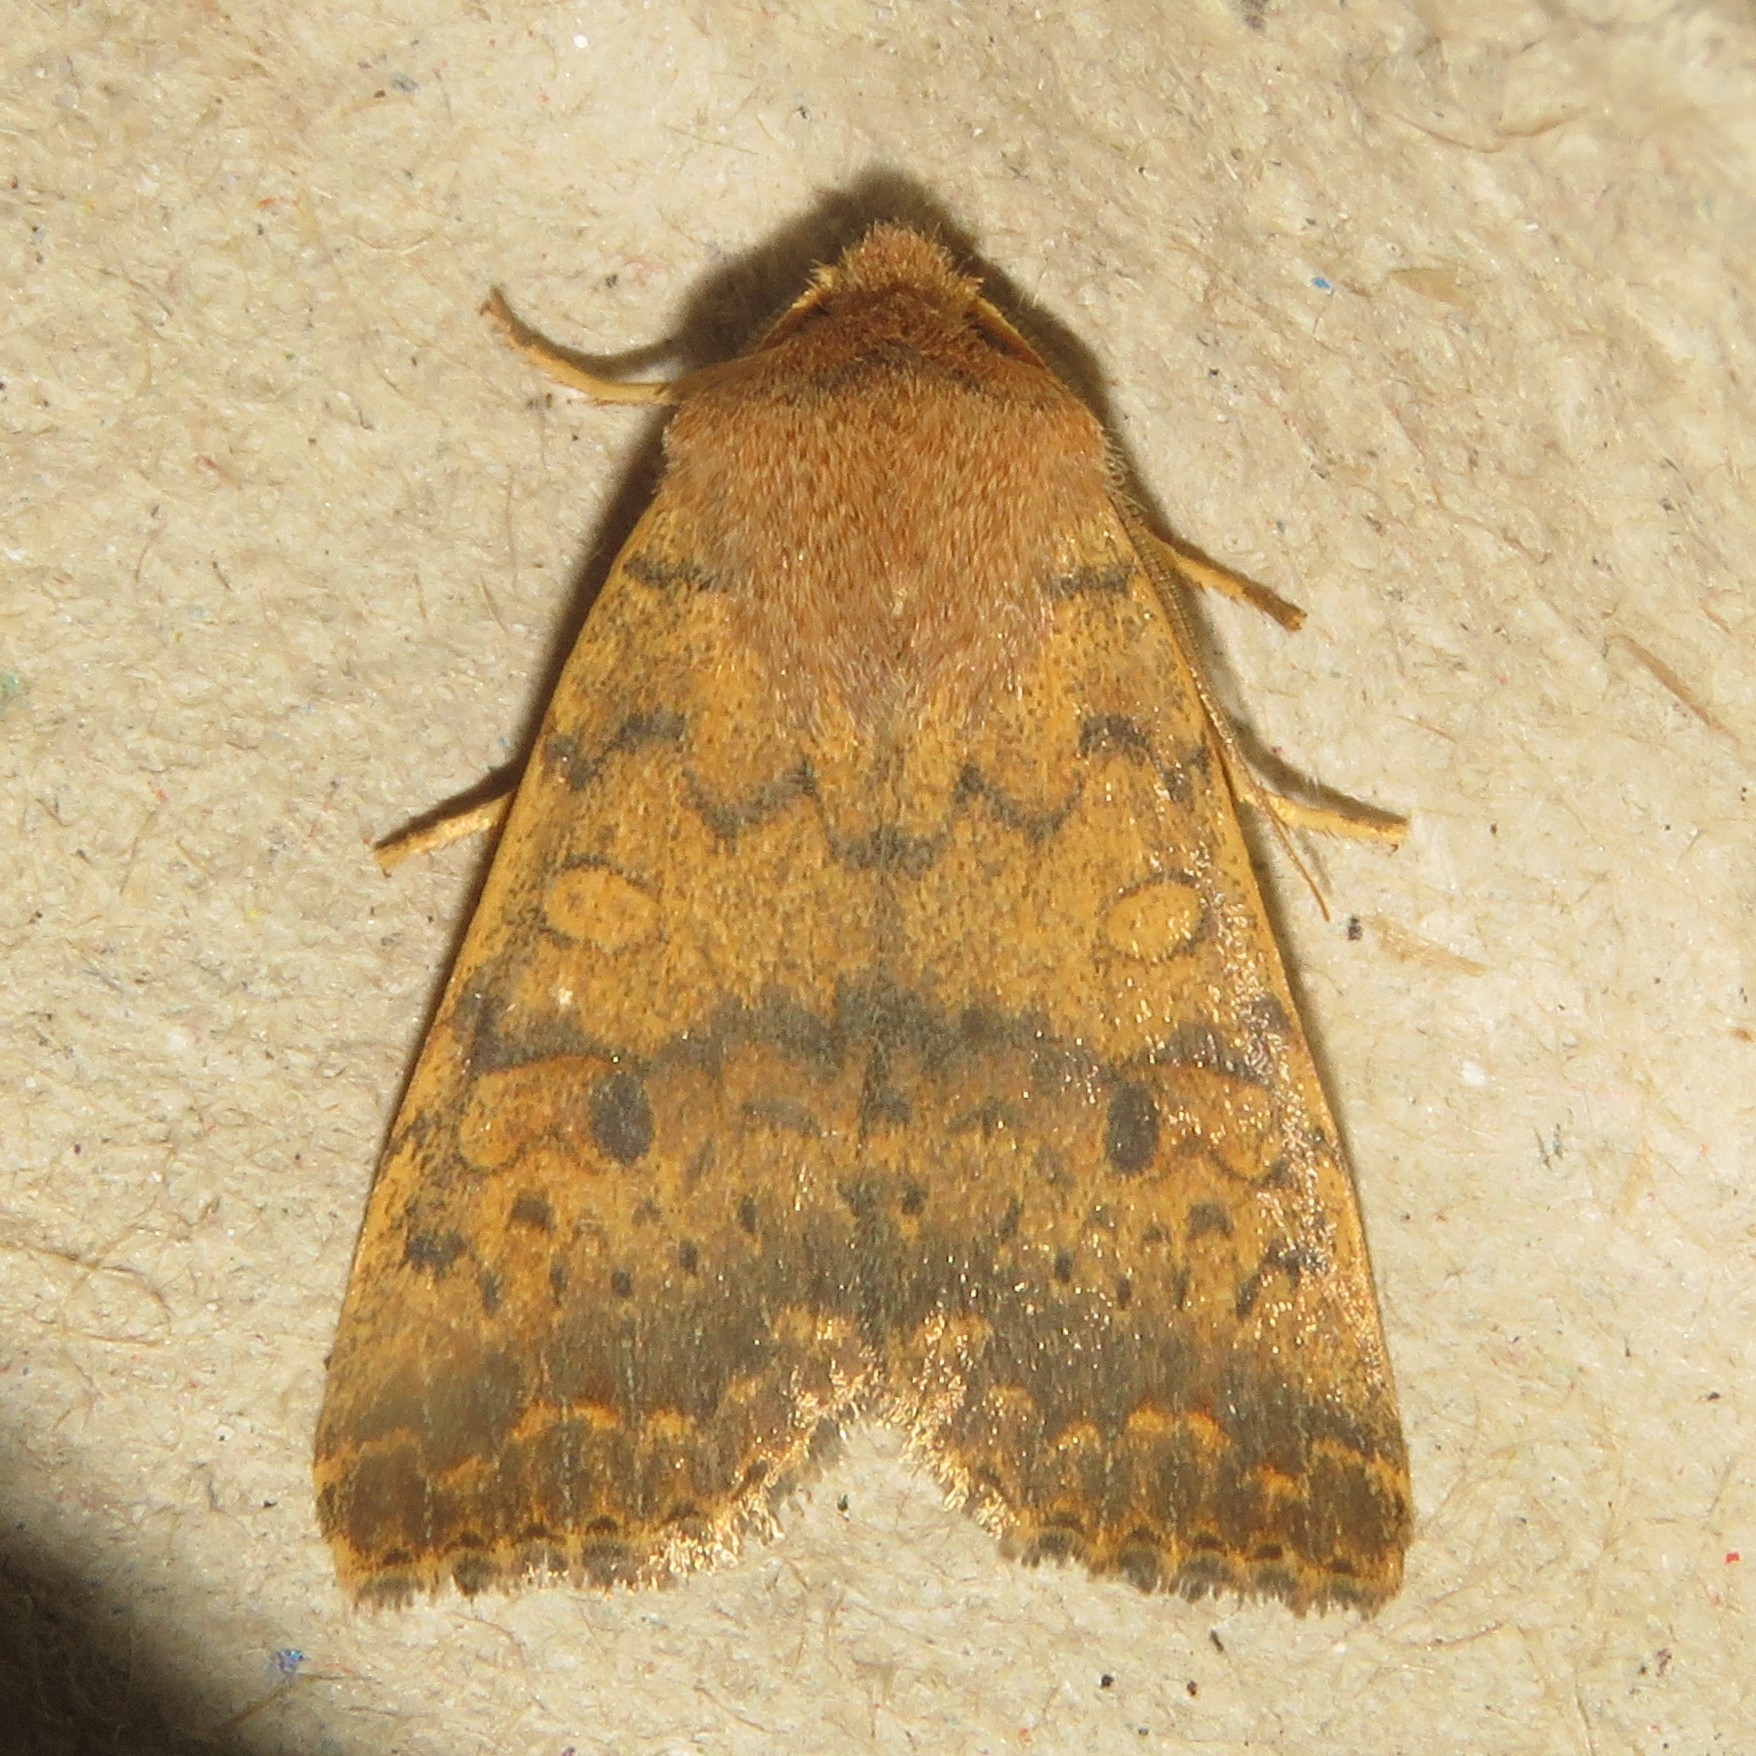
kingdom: Animalia
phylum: Arthropoda
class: Insecta
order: Lepidoptera
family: Noctuidae
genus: Agrochola
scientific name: Agrochola bicolorago
